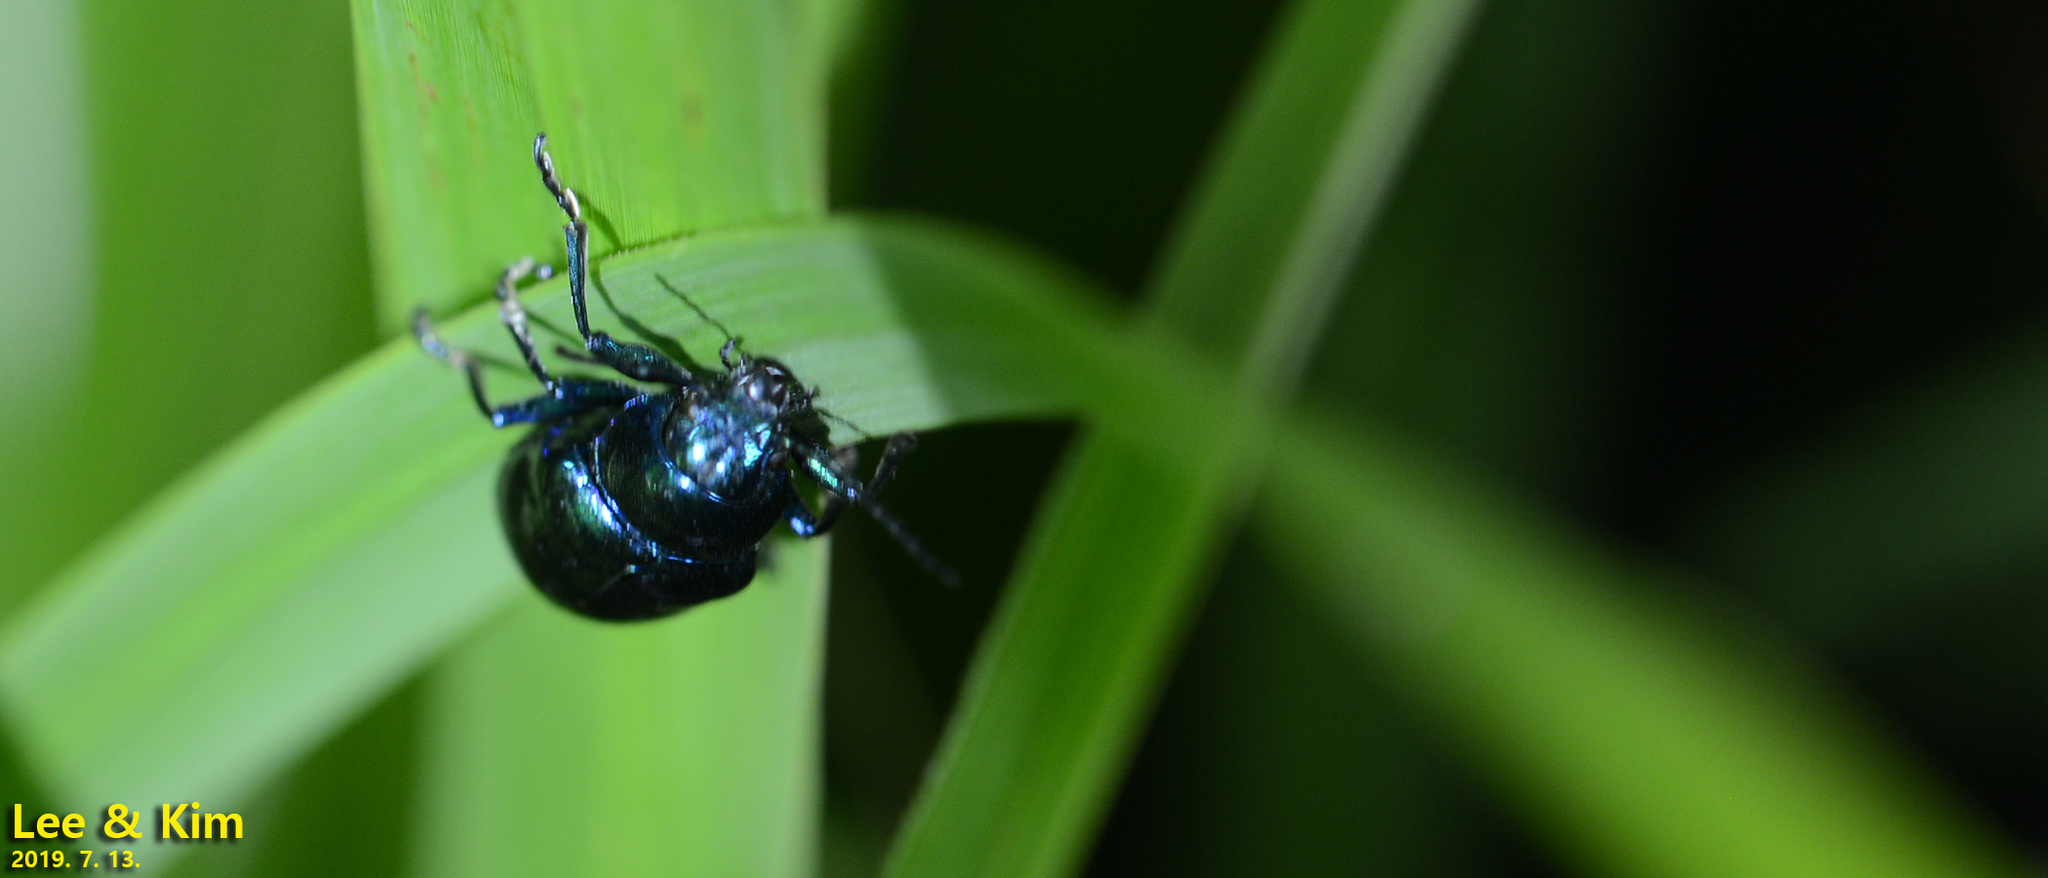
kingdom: Animalia
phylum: Arthropoda
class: Insecta
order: Coleoptera
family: Chrysomelidae
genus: Chrysochus
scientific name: Chrysochus chinensis
